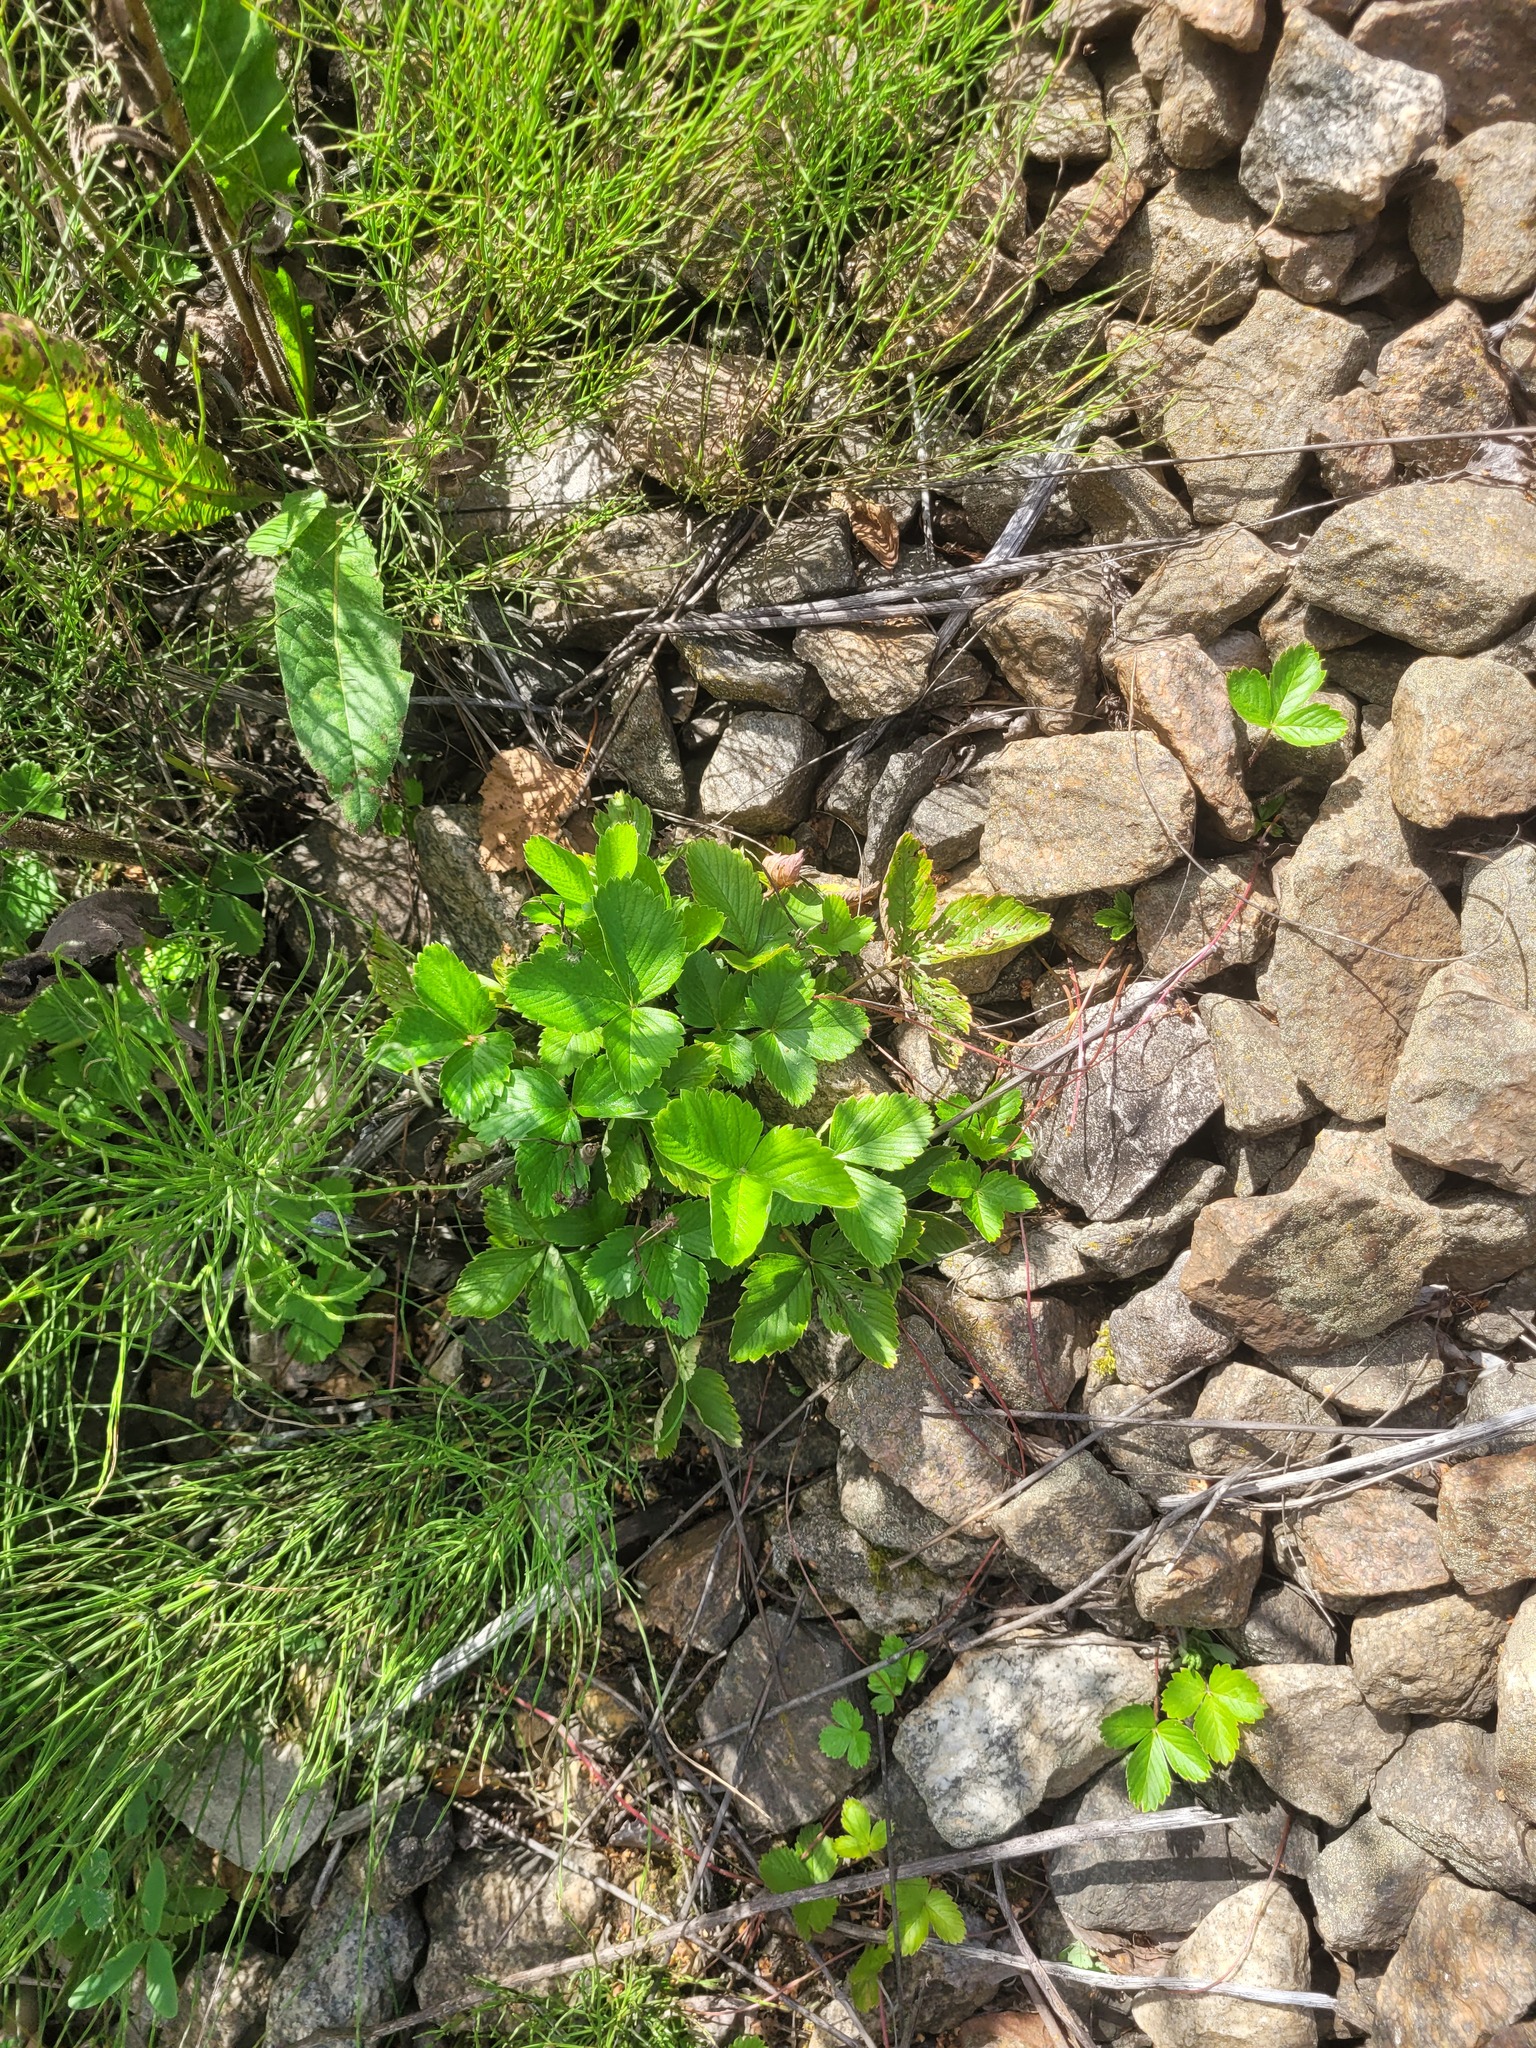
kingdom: Plantae
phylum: Tracheophyta
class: Magnoliopsida
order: Rosales
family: Rosaceae
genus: Fragaria
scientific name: Fragaria vesca
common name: Wild strawberry
